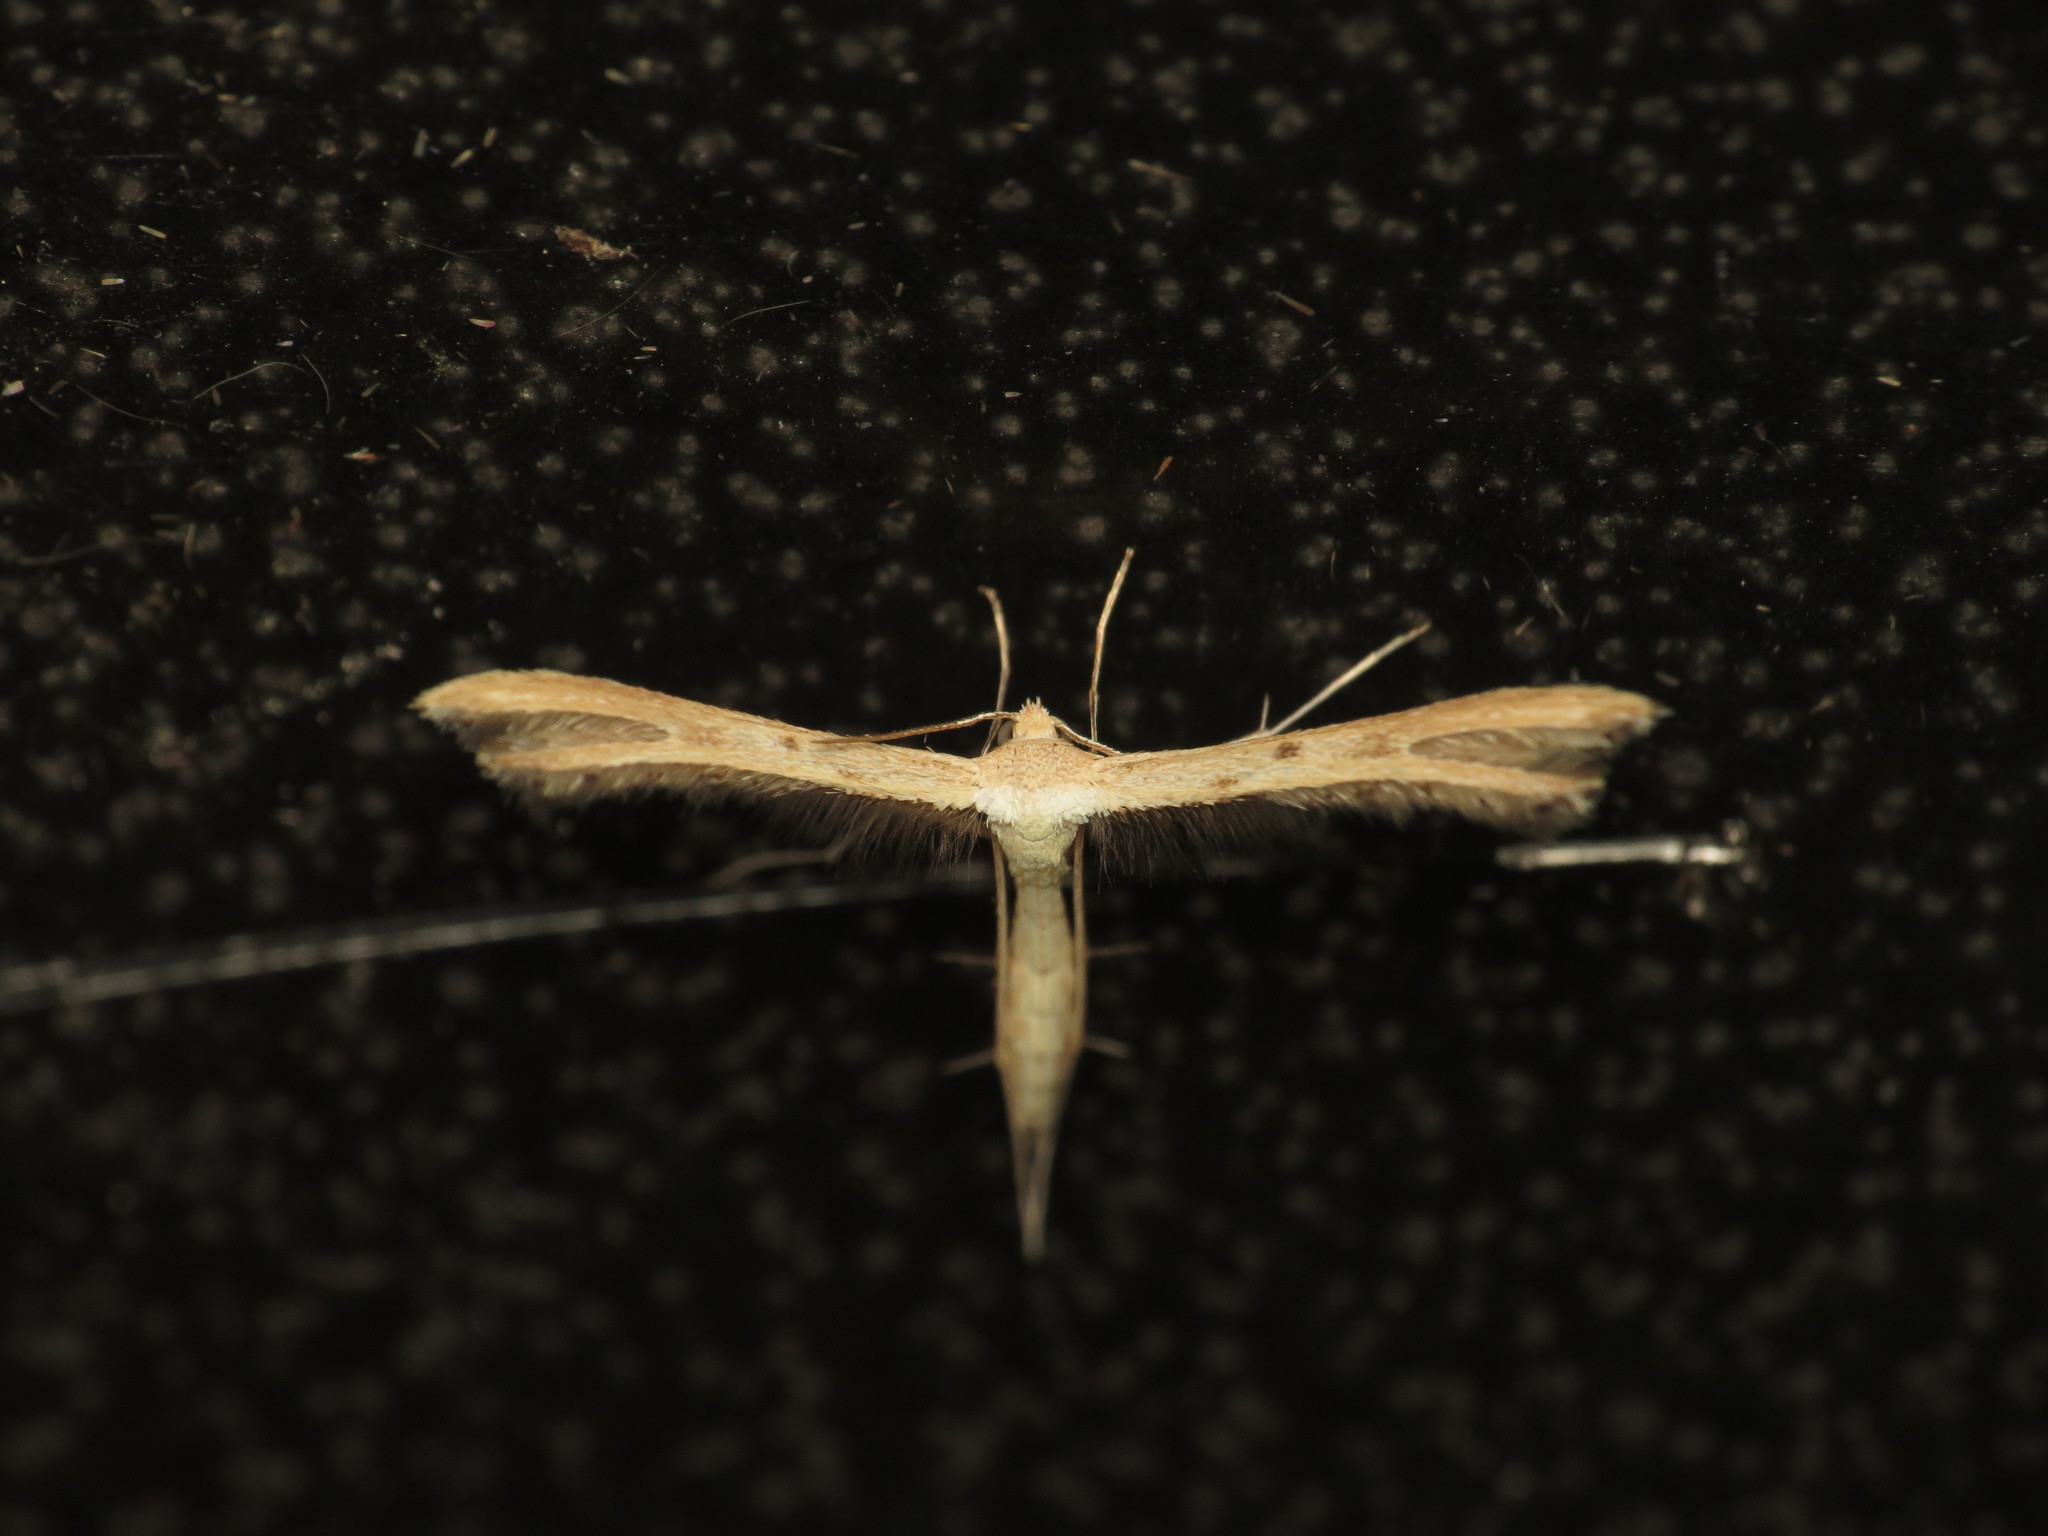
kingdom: Animalia
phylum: Arthropoda
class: Insecta
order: Lepidoptera
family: Pterophoridae
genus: Exelastis
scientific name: Exelastis pumilio
